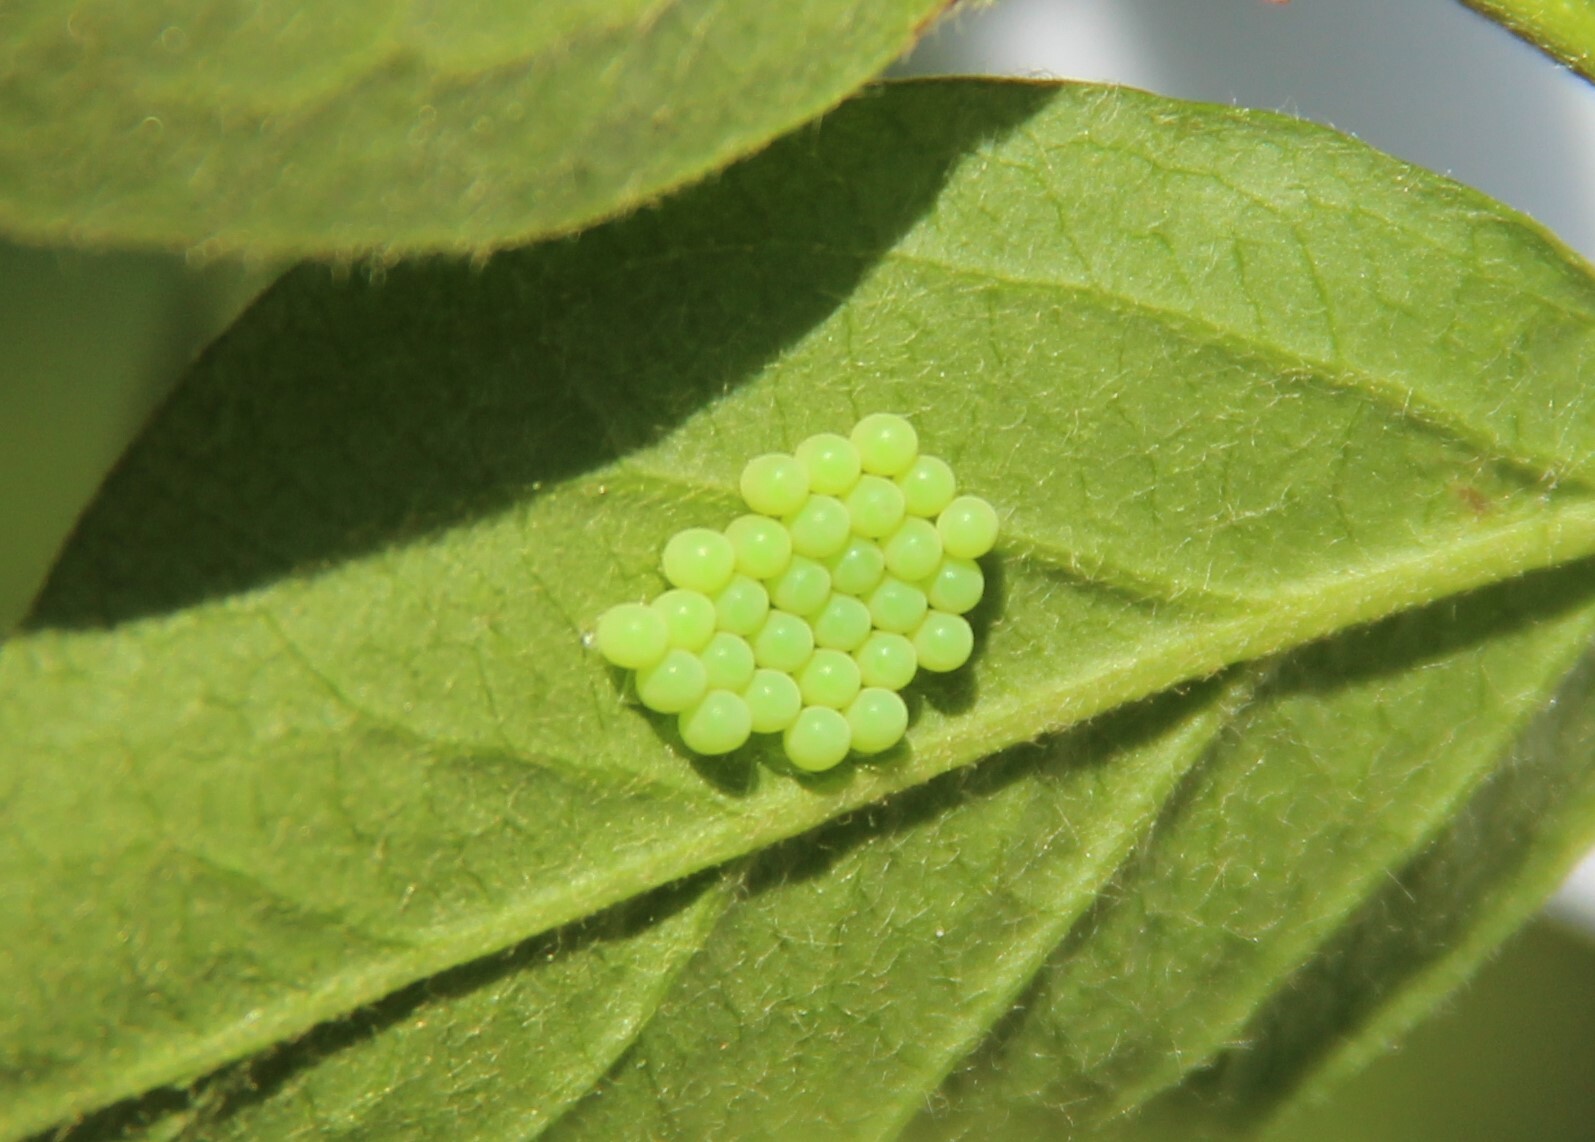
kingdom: Animalia
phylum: Arthropoda
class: Insecta
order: Hemiptera
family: Pentatomidae
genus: Palomena
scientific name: Palomena prasina
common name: Green shieldbug
